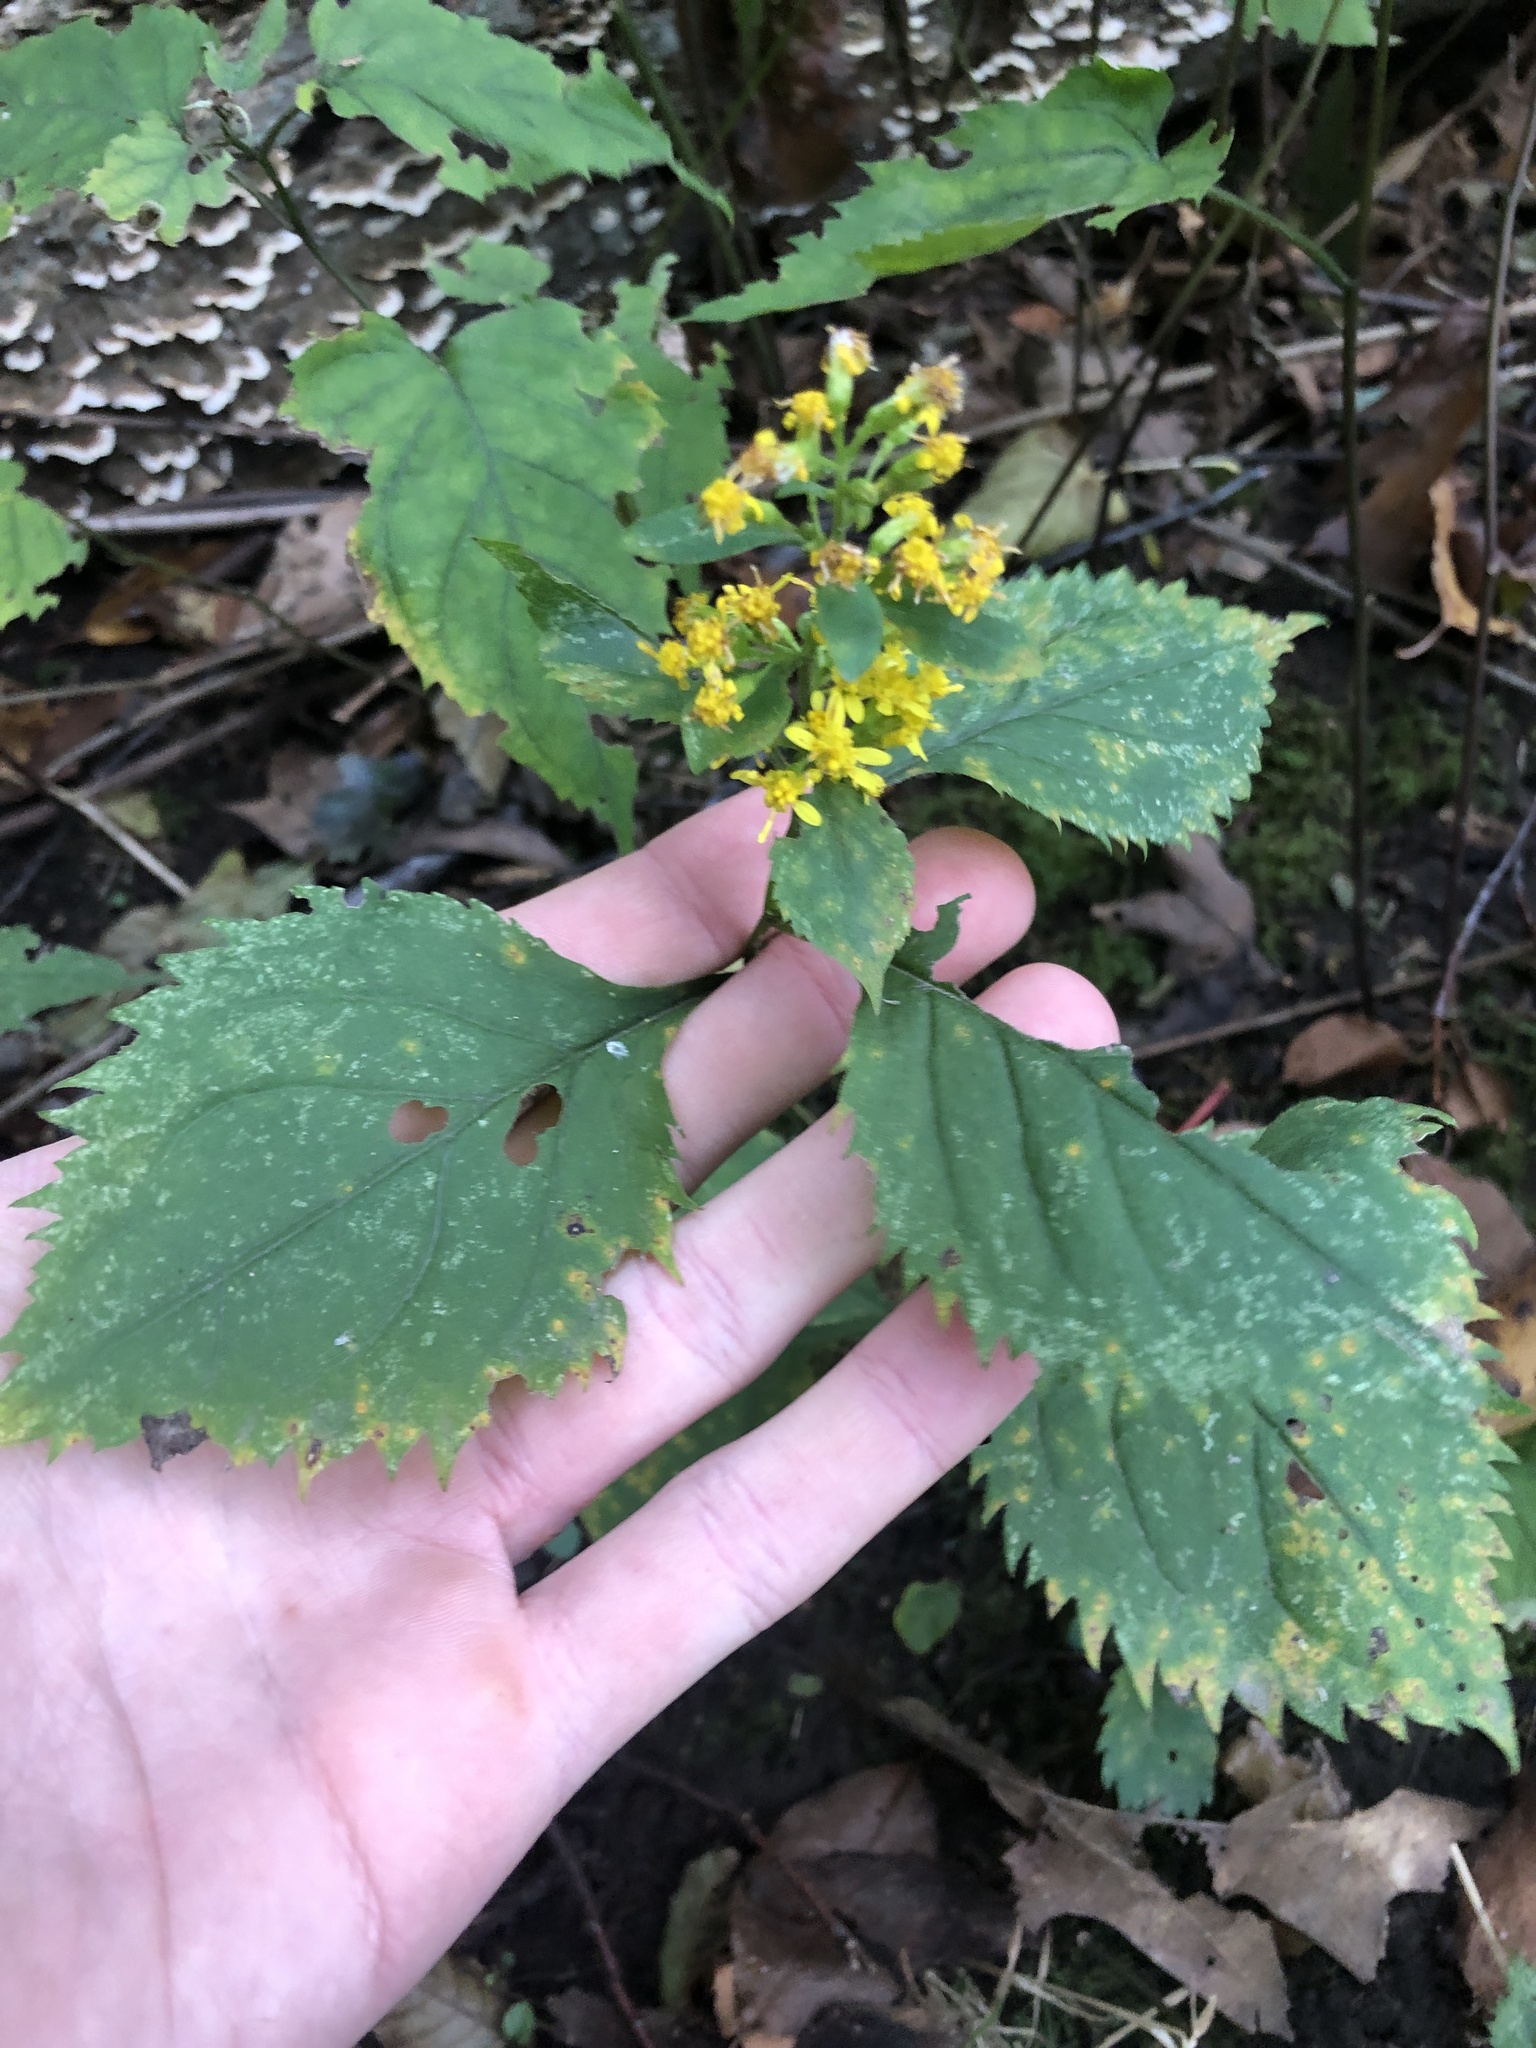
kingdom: Plantae
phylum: Tracheophyta
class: Magnoliopsida
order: Asterales
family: Asteraceae
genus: Solidago
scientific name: Solidago flexicaulis
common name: Zig-zag goldenrod
